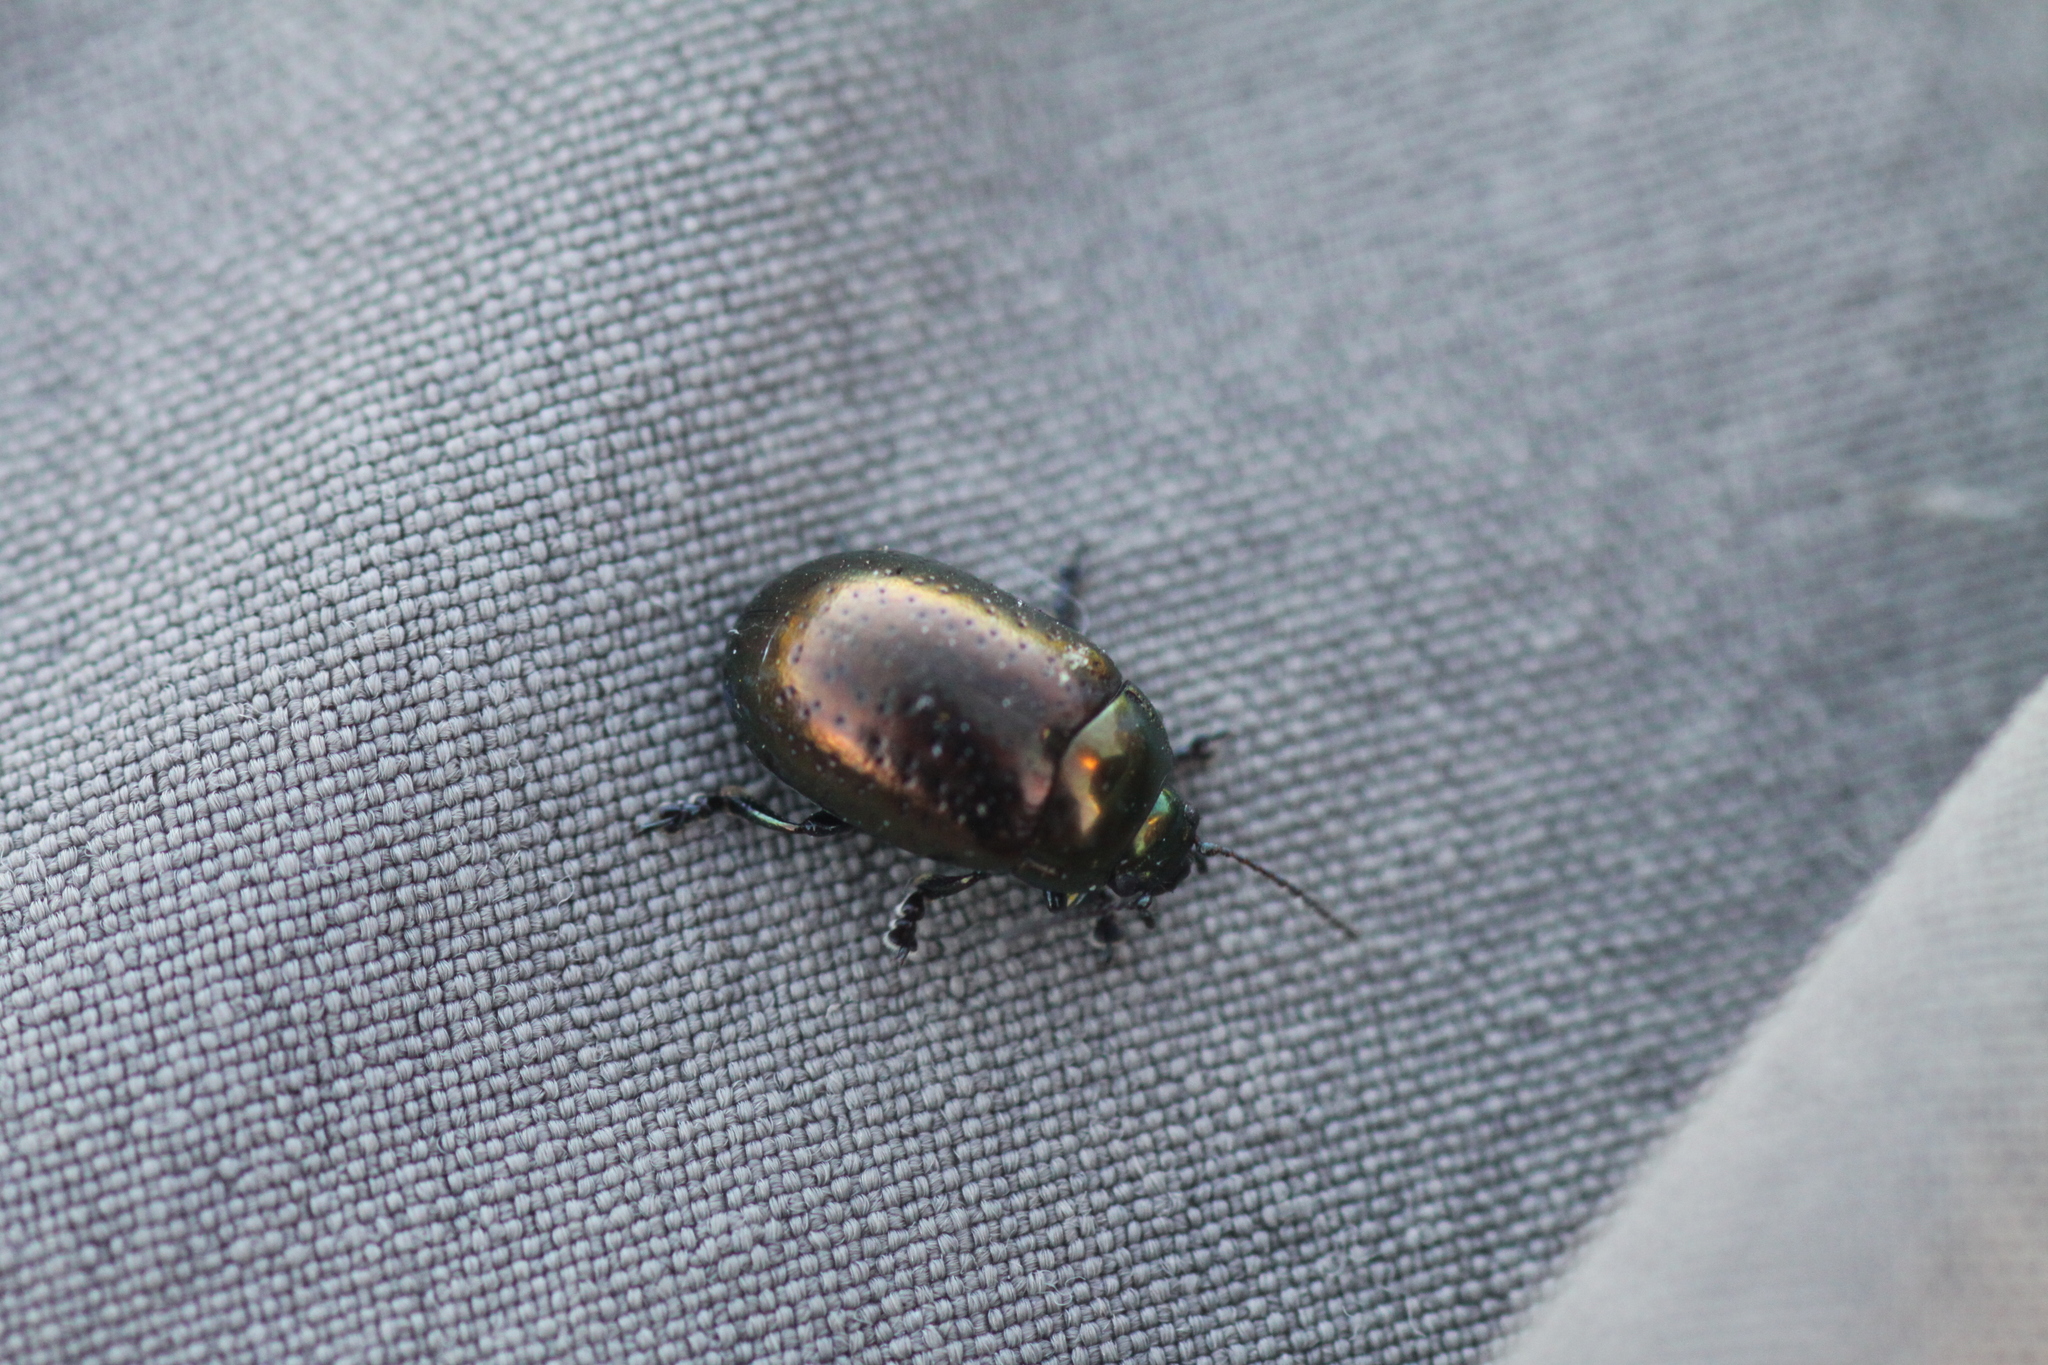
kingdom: Animalia
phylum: Arthropoda
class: Insecta
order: Coleoptera
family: Chrysomelidae
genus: Chrysolina
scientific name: Chrysolina hyperici
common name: St. johnswort beetle
